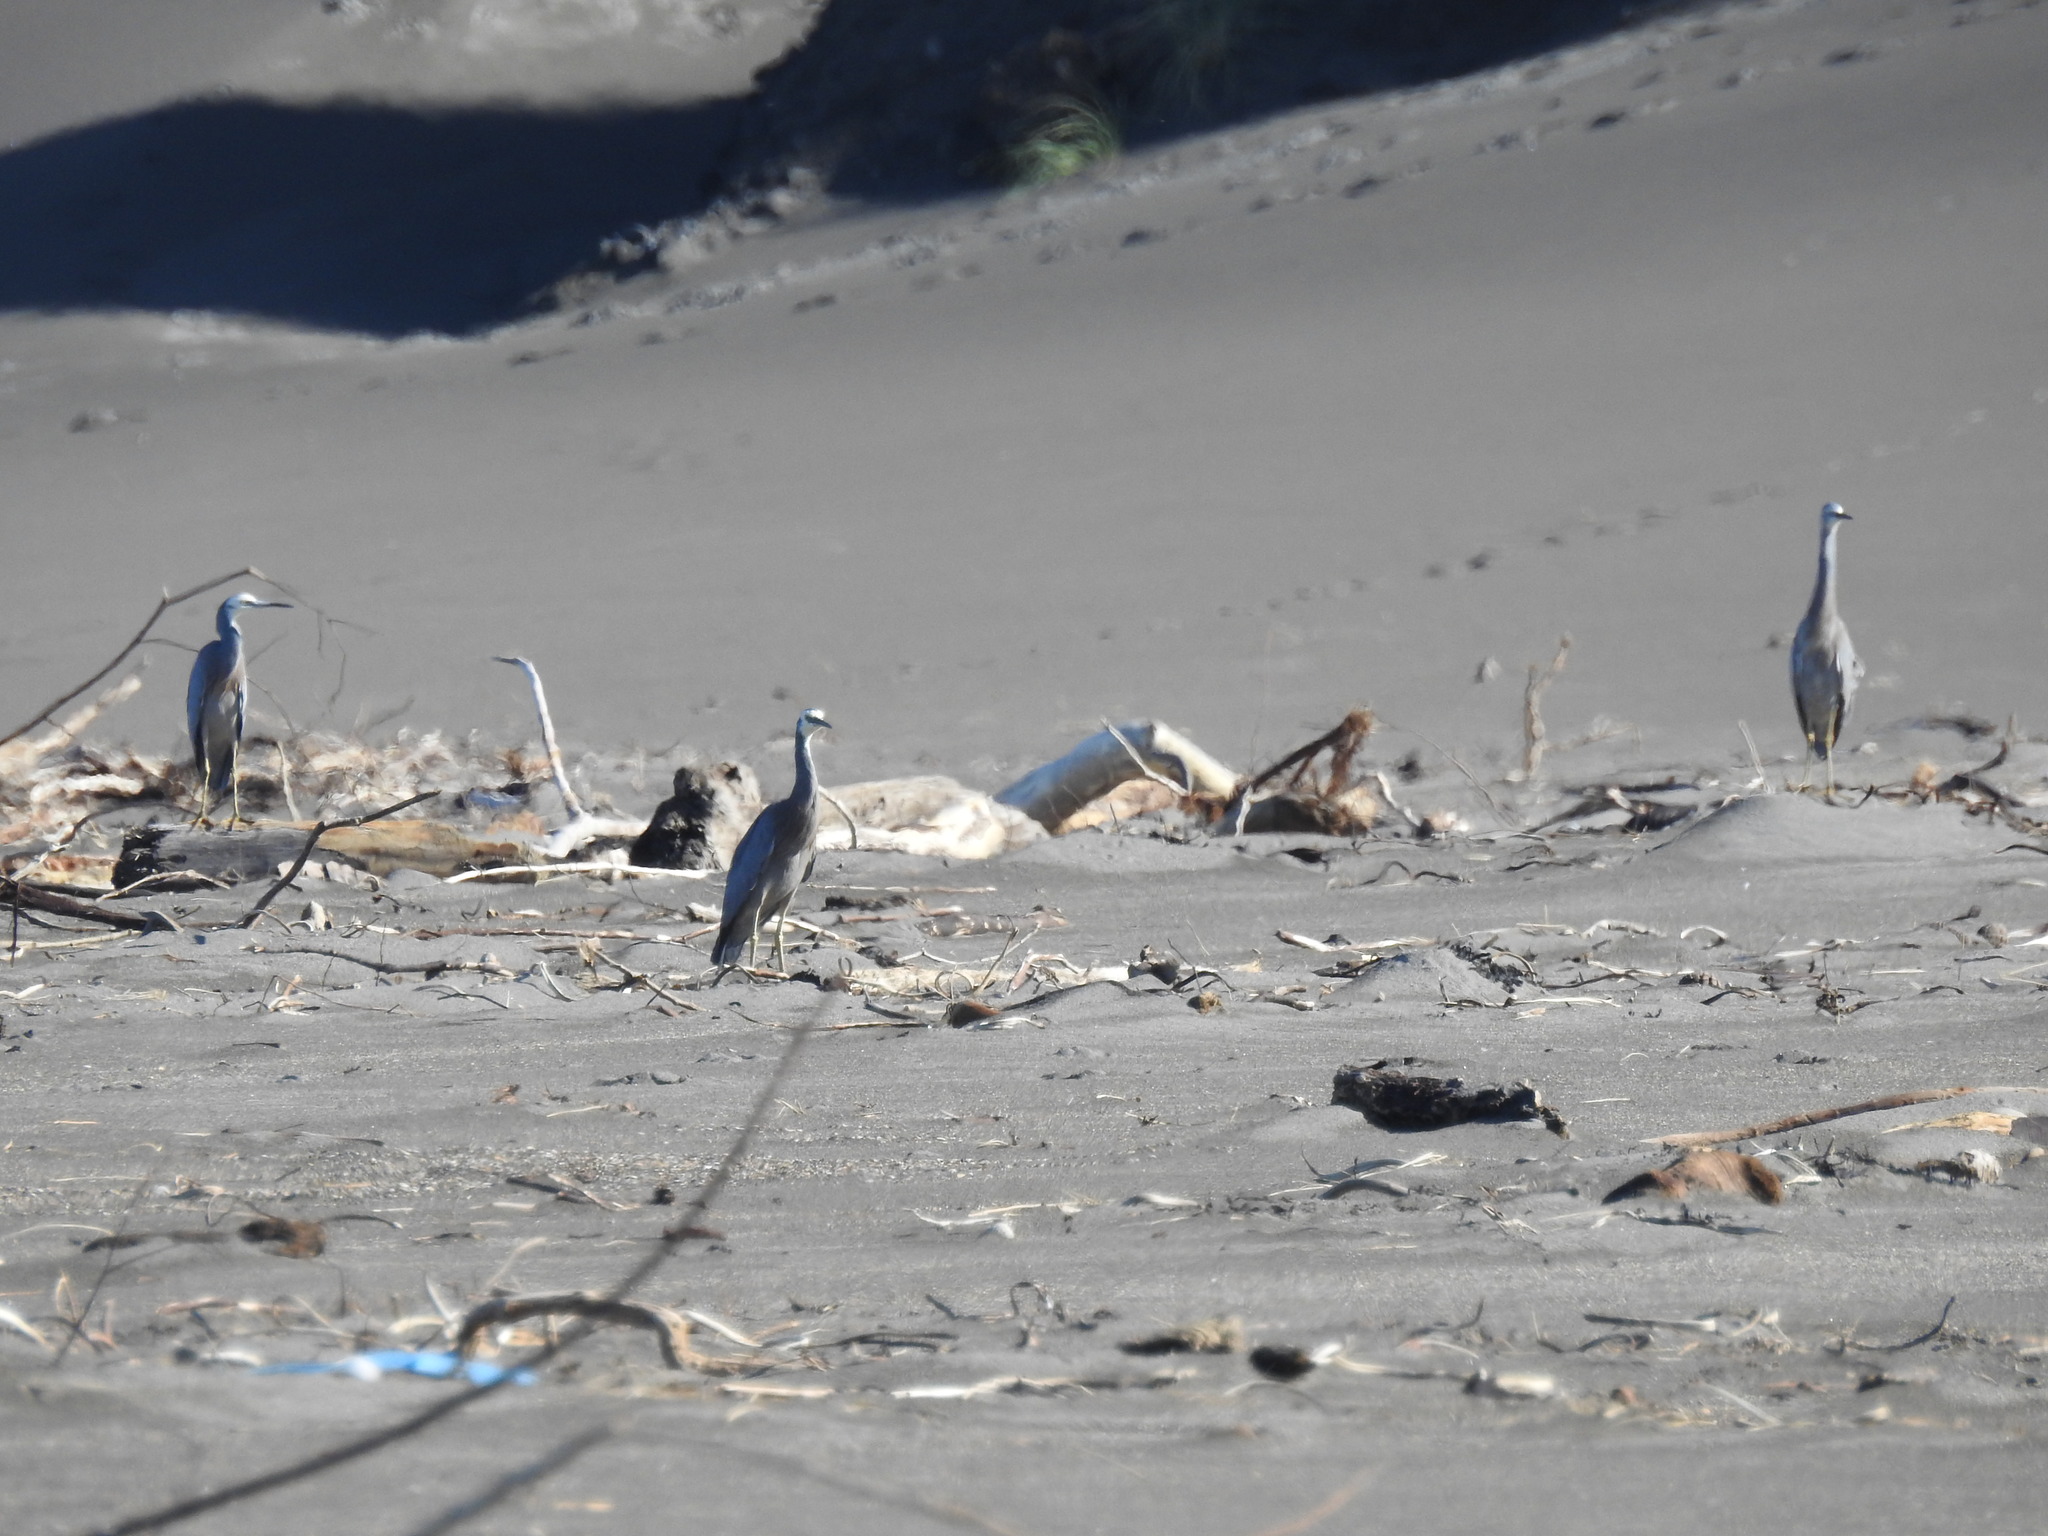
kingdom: Animalia
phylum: Chordata
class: Aves
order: Pelecaniformes
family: Ardeidae
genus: Egretta
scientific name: Egretta novaehollandiae
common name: White-faced heron
